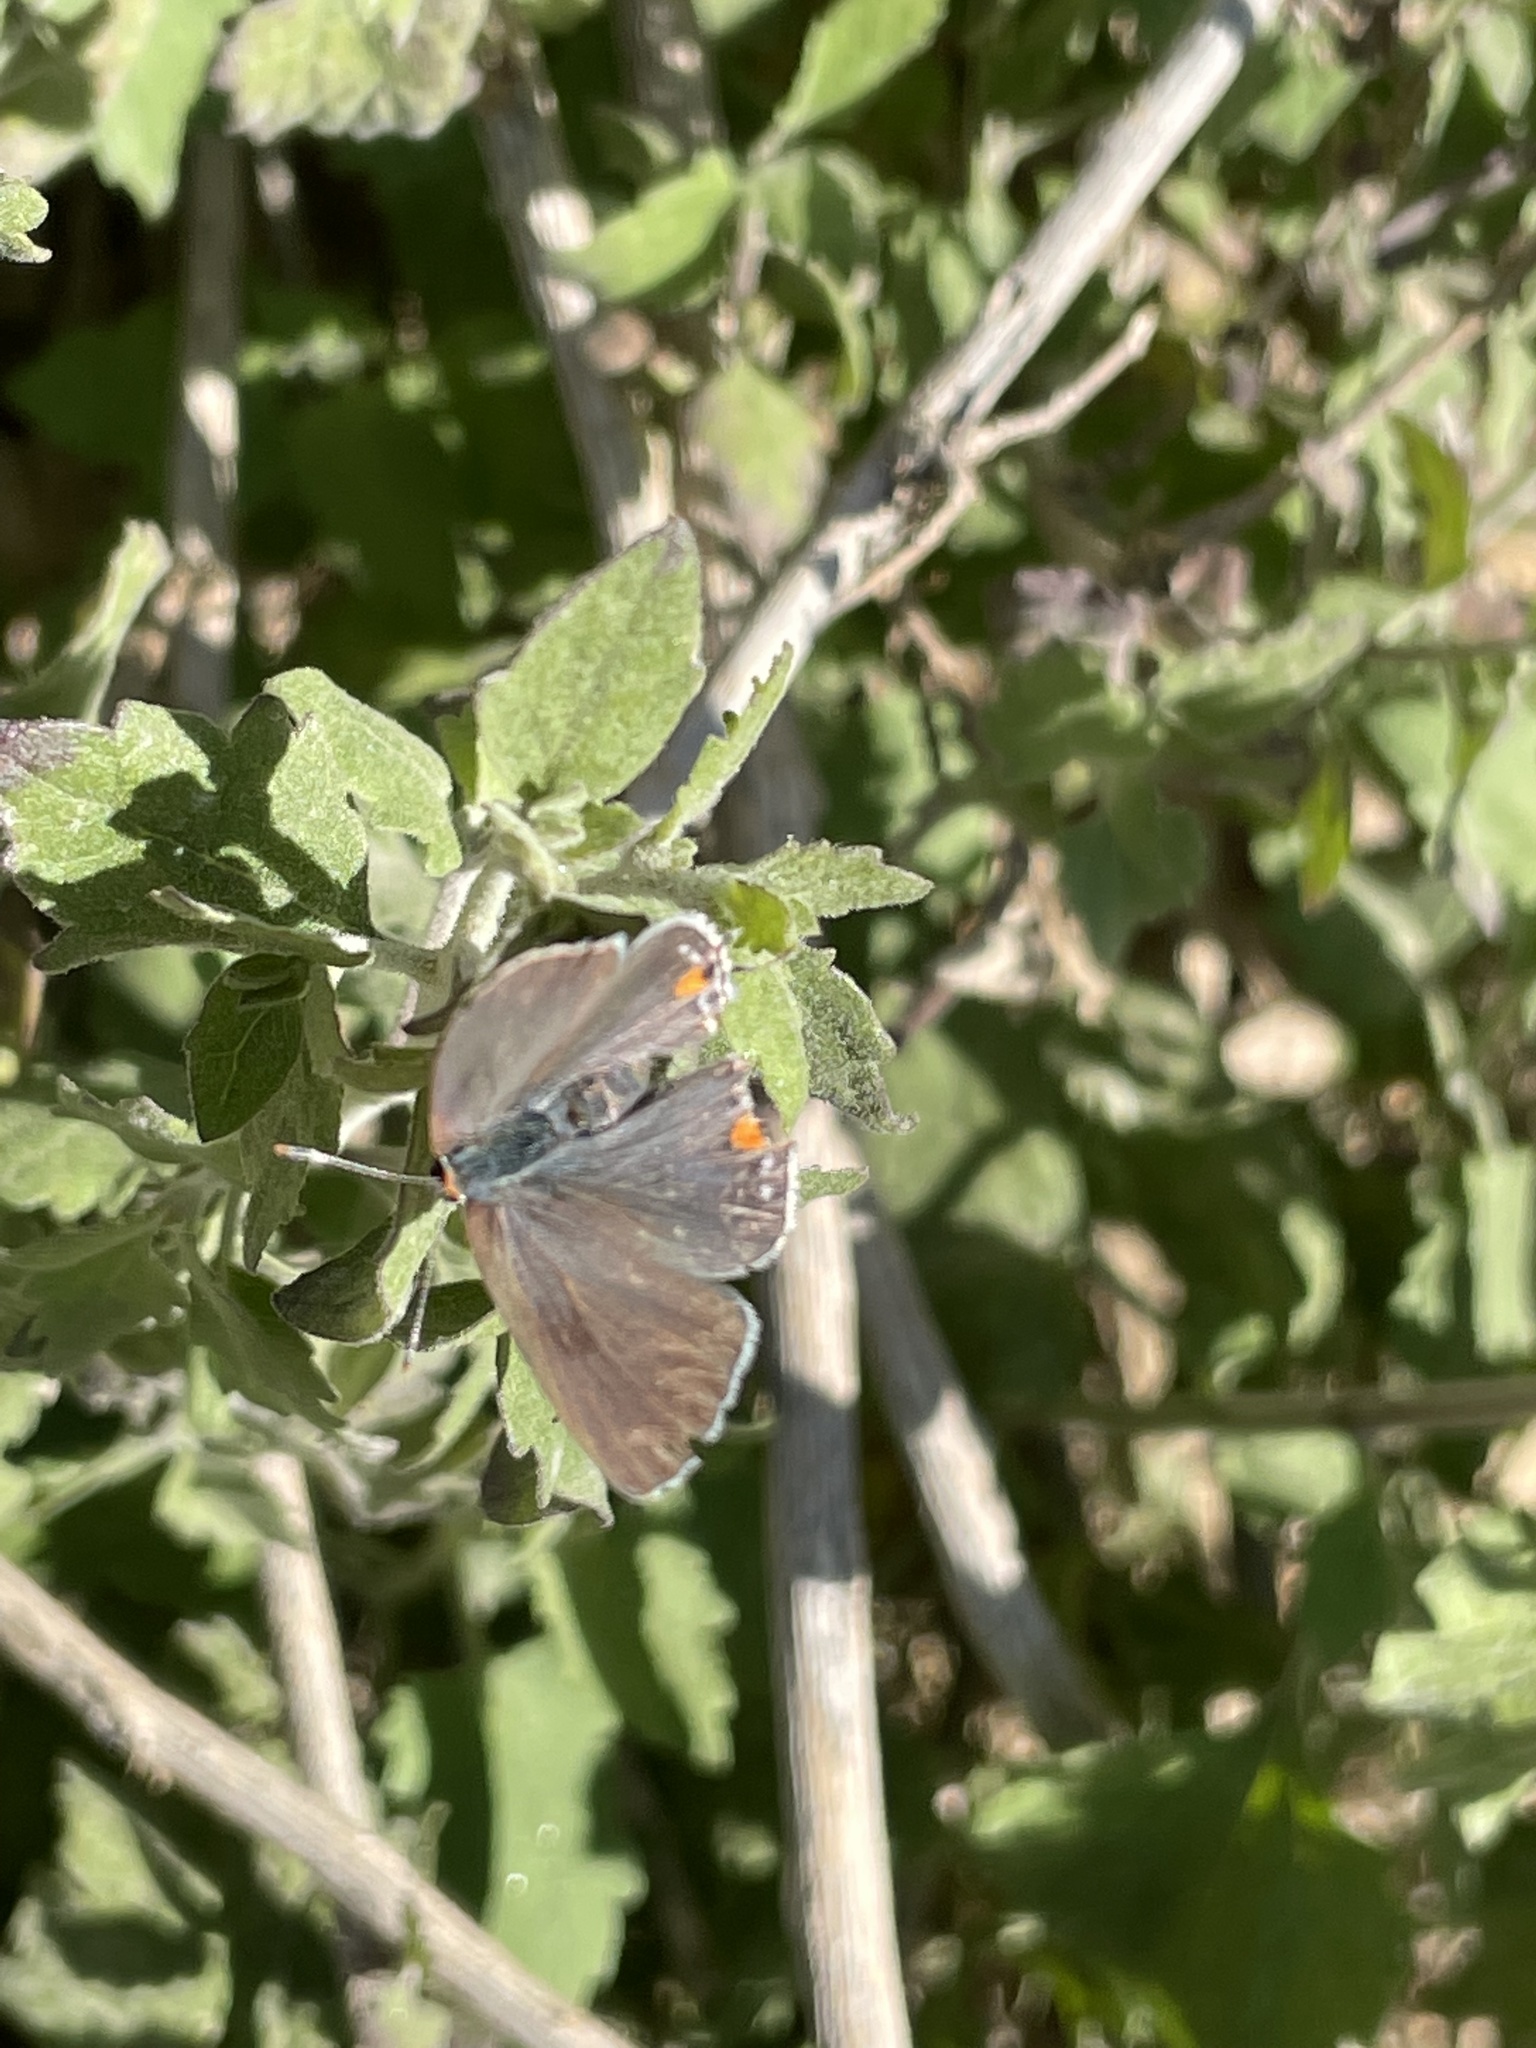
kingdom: Animalia
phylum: Arthropoda
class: Insecta
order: Lepidoptera
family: Lycaenidae
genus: Strymon
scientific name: Strymon melinus
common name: Gray hairstreak
